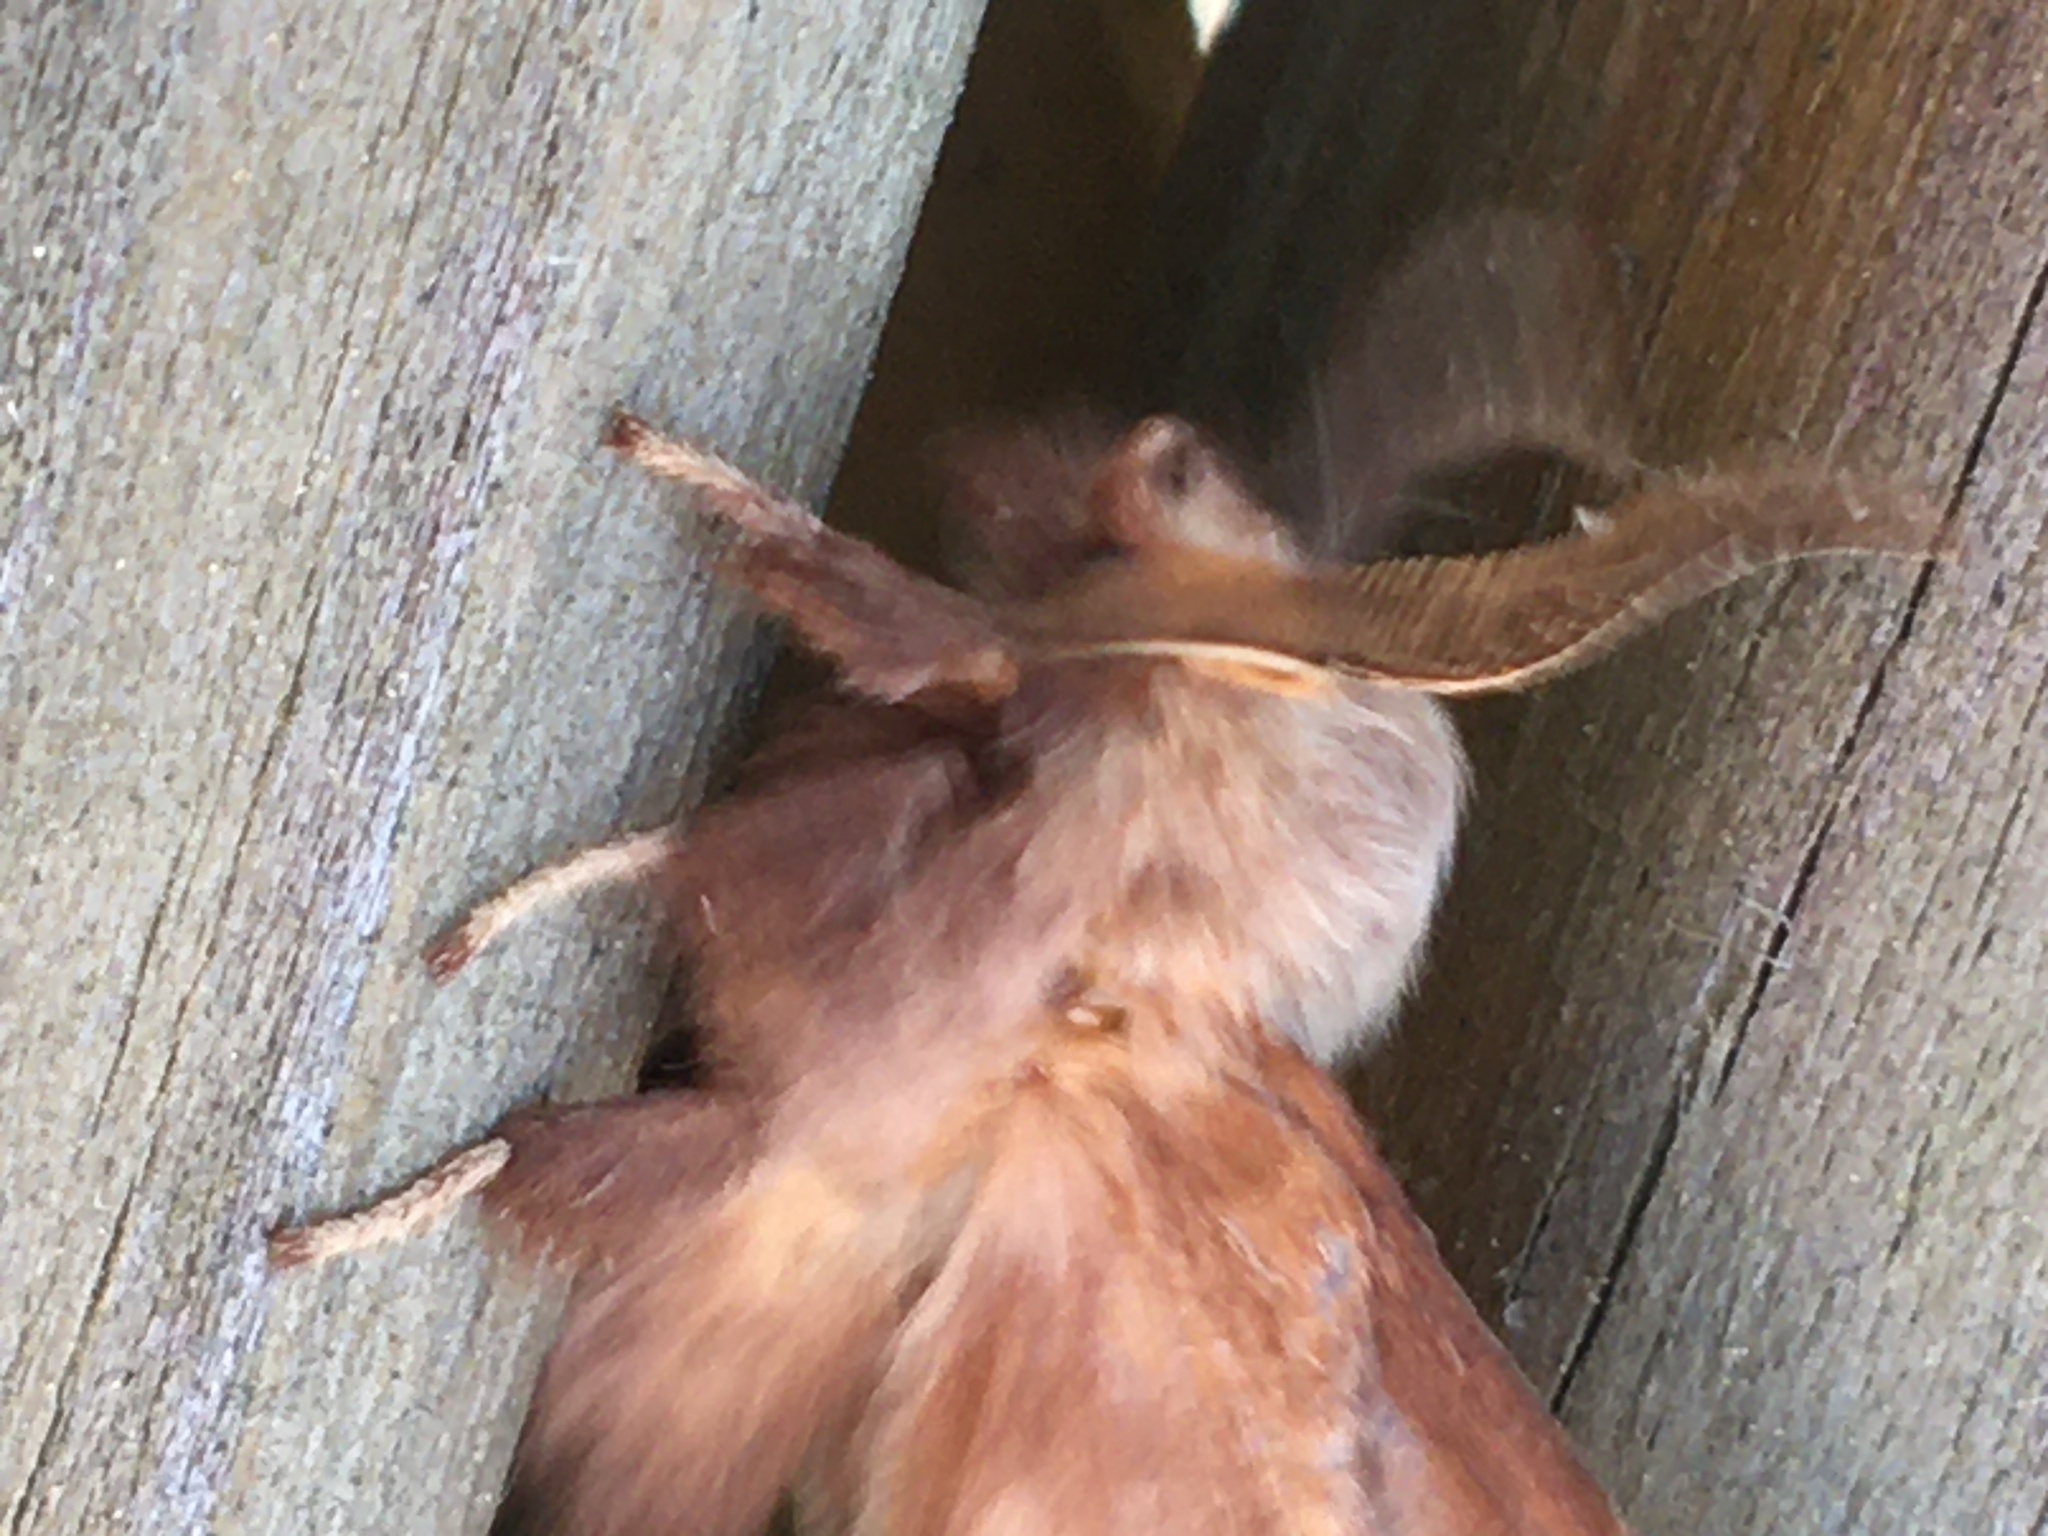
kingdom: Animalia
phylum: Arthropoda
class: Insecta
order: Lepidoptera
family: Lasiocampidae
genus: Malacosoma
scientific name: Malacosoma americana
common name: Eastern tent caterpillar moth
